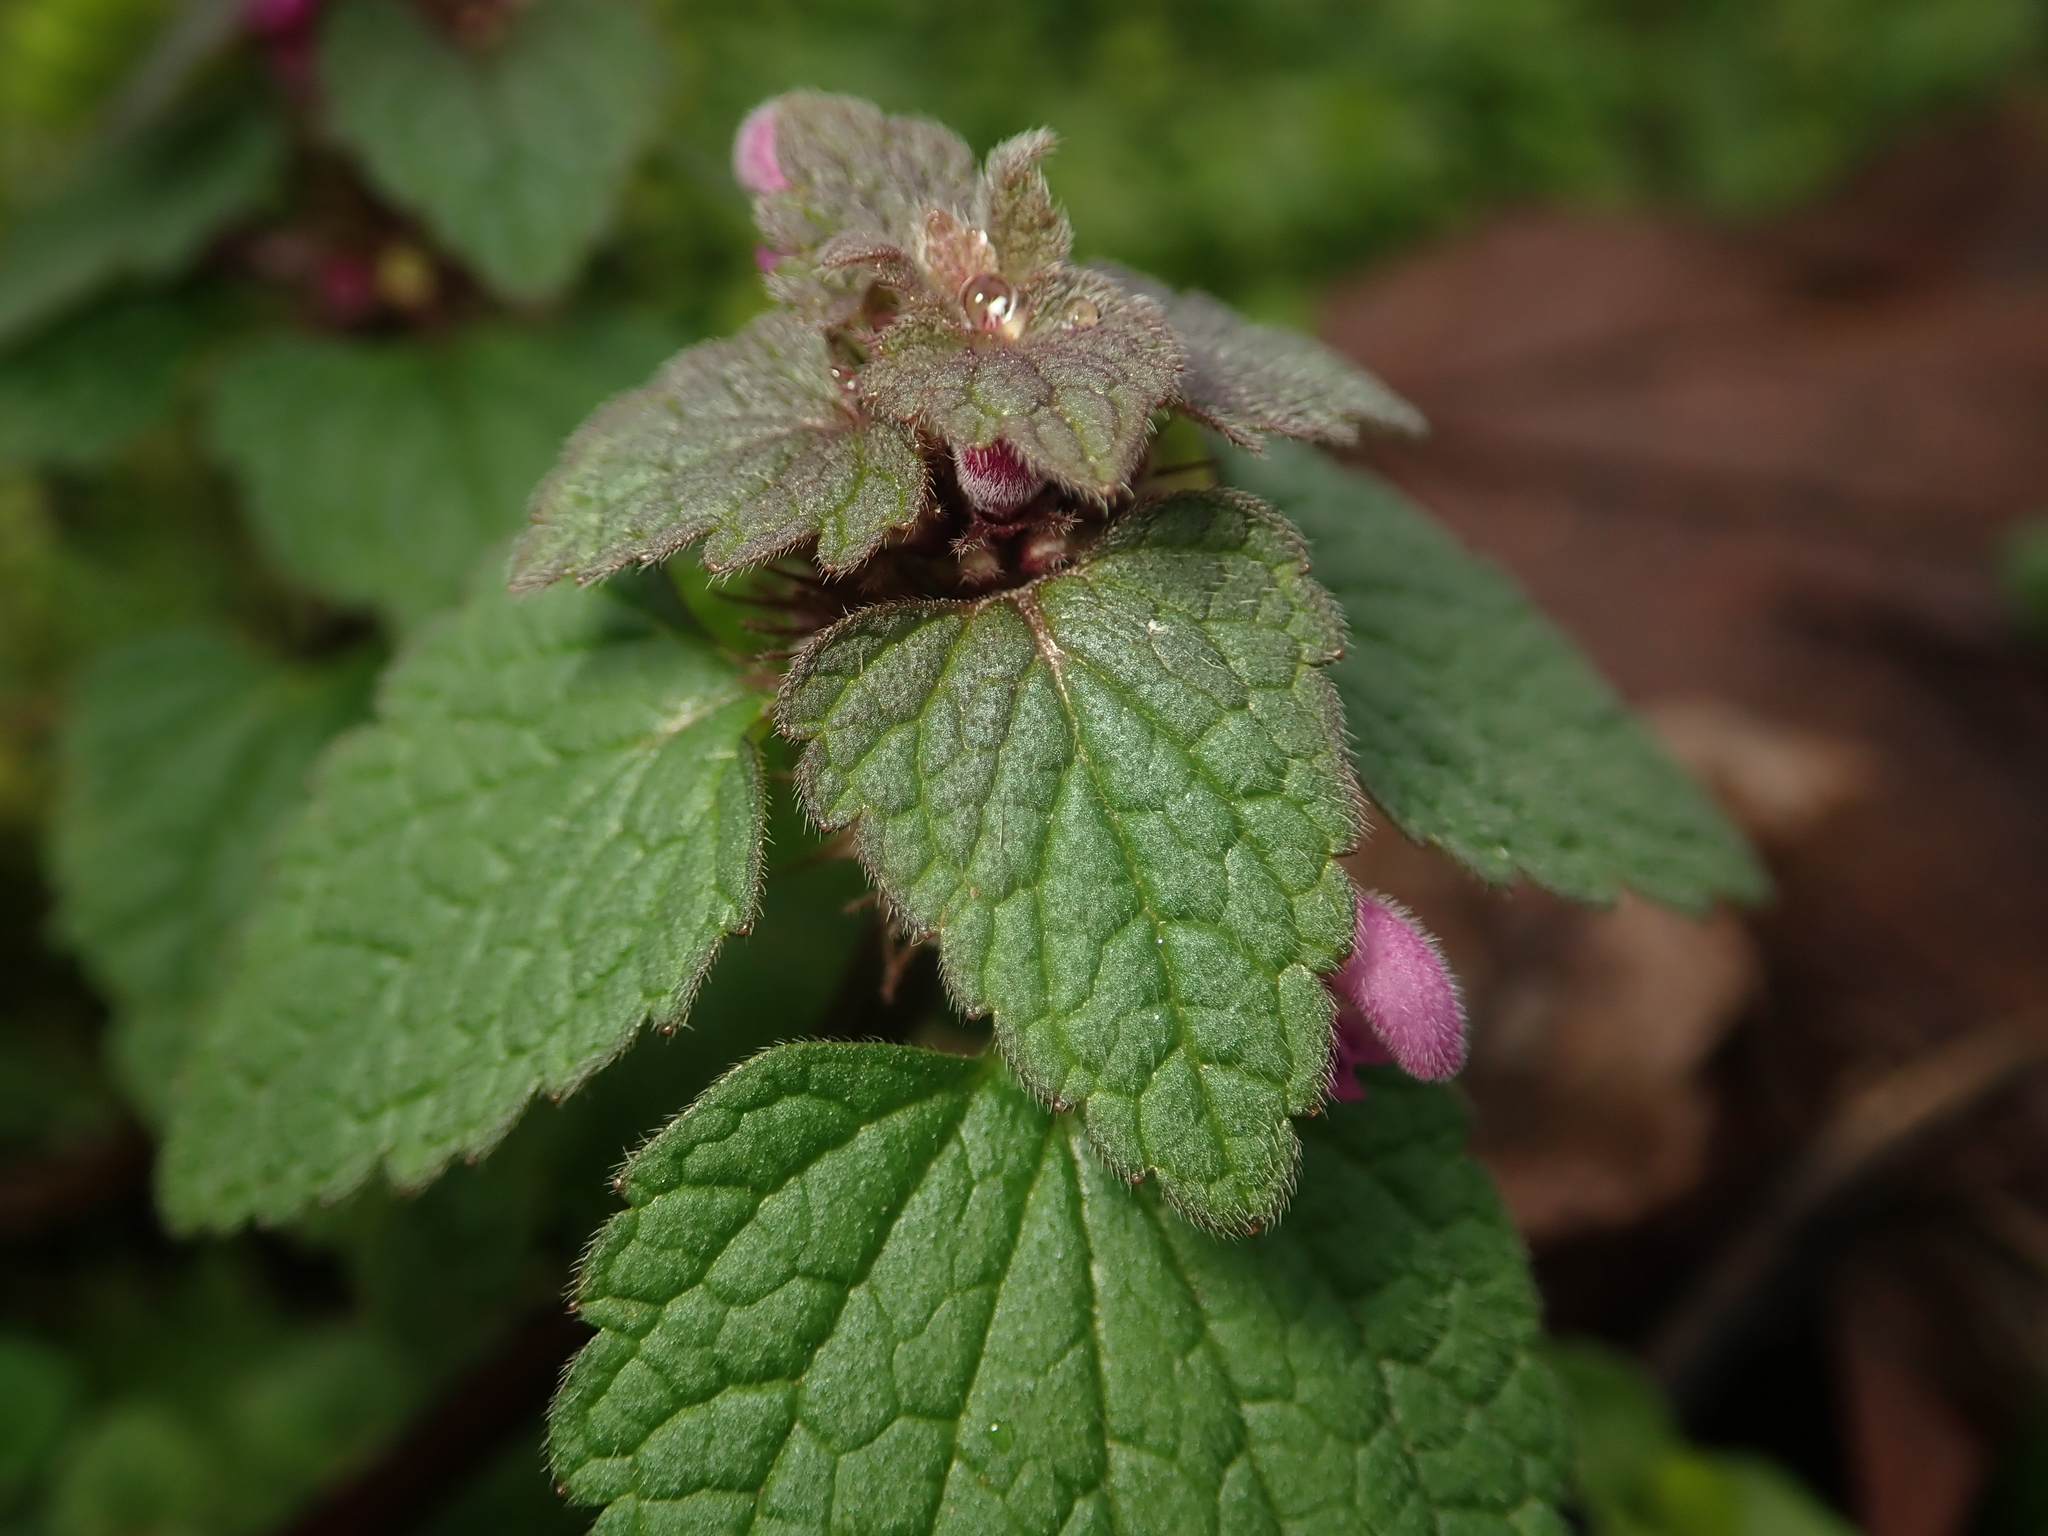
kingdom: Plantae
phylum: Tracheophyta
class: Magnoliopsida
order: Lamiales
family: Lamiaceae
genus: Lamium
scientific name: Lamium purpureum
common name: Red dead-nettle
